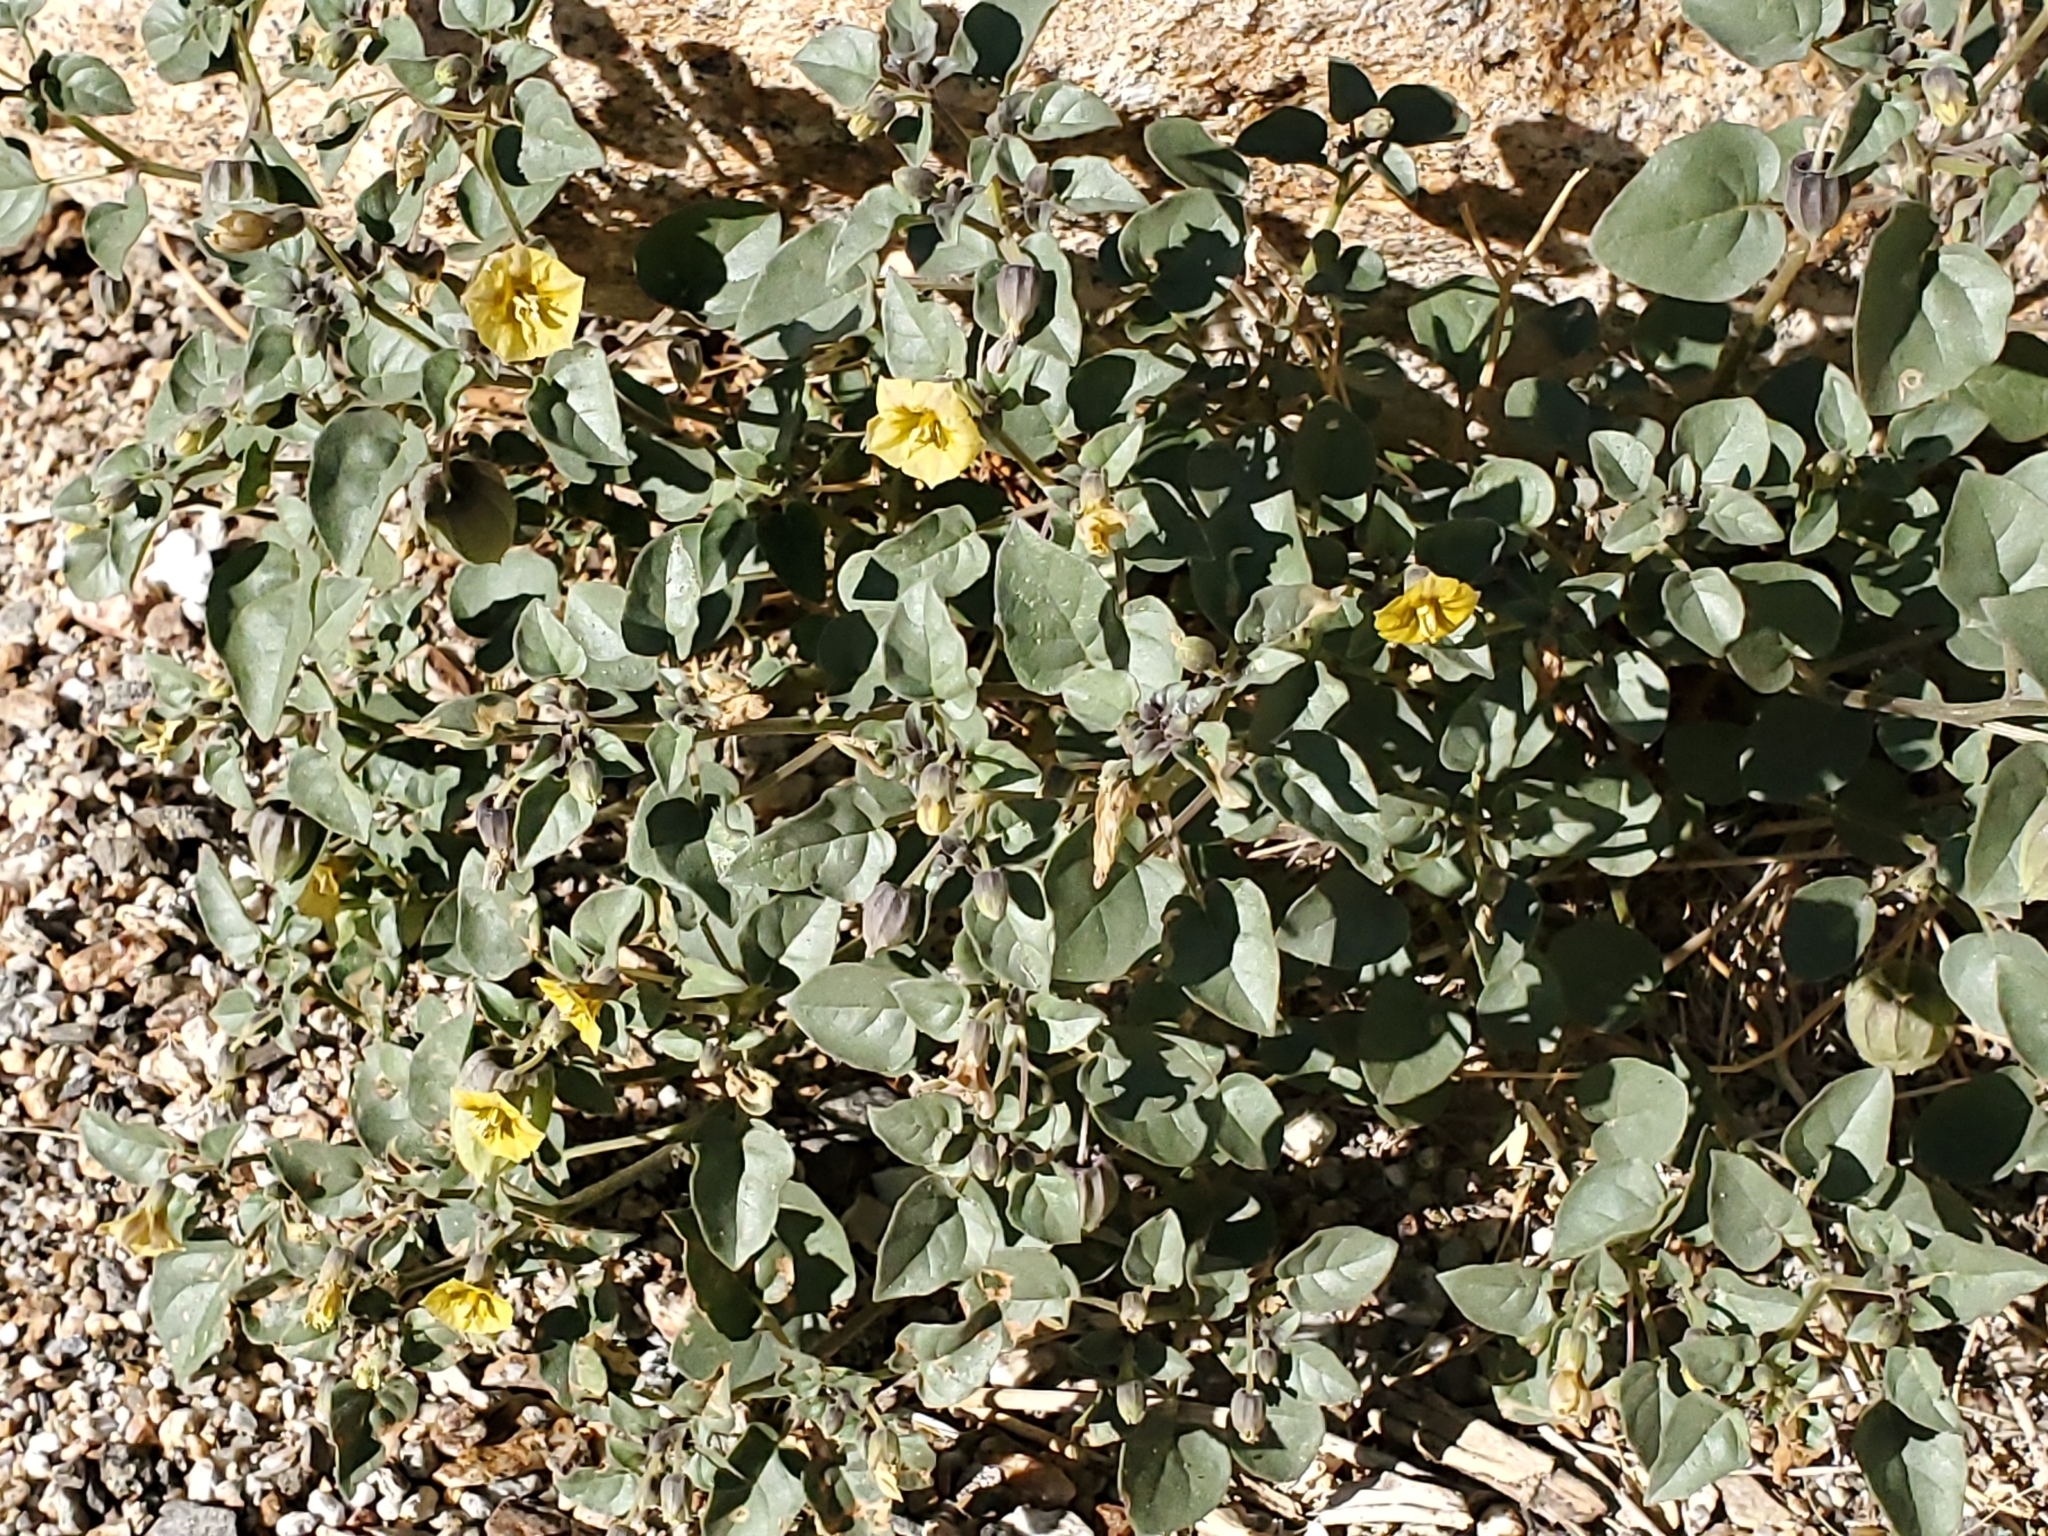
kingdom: Plantae
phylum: Tracheophyta
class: Magnoliopsida
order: Solanales
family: Solanaceae
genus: Physalis
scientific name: Physalis crassifolia
